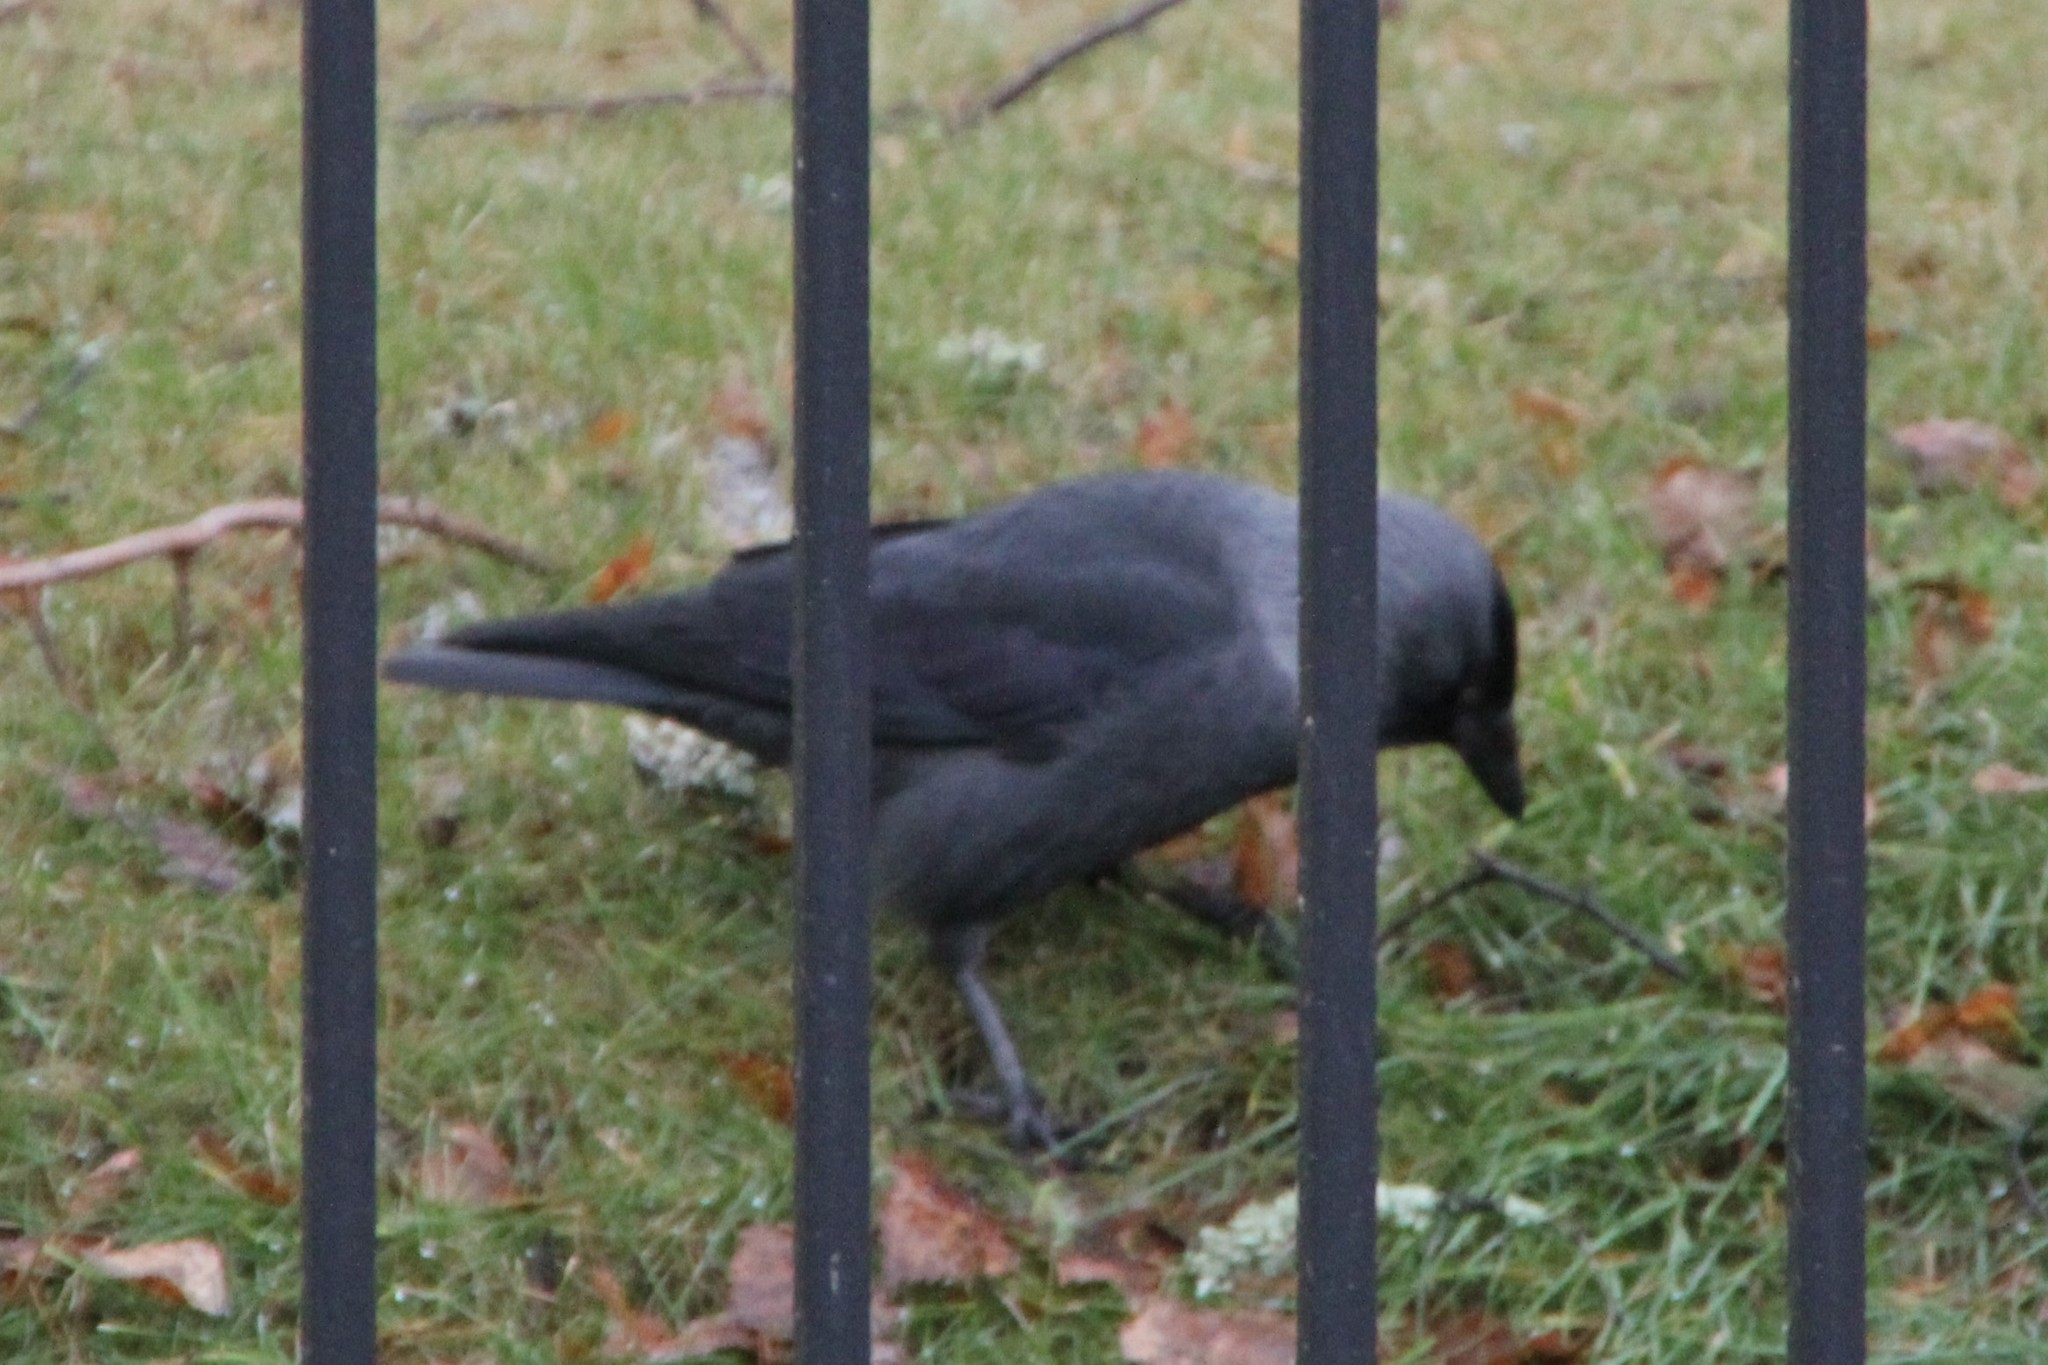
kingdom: Animalia
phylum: Chordata
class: Aves
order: Passeriformes
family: Corvidae
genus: Coloeus
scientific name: Coloeus monedula
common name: Western jackdaw
